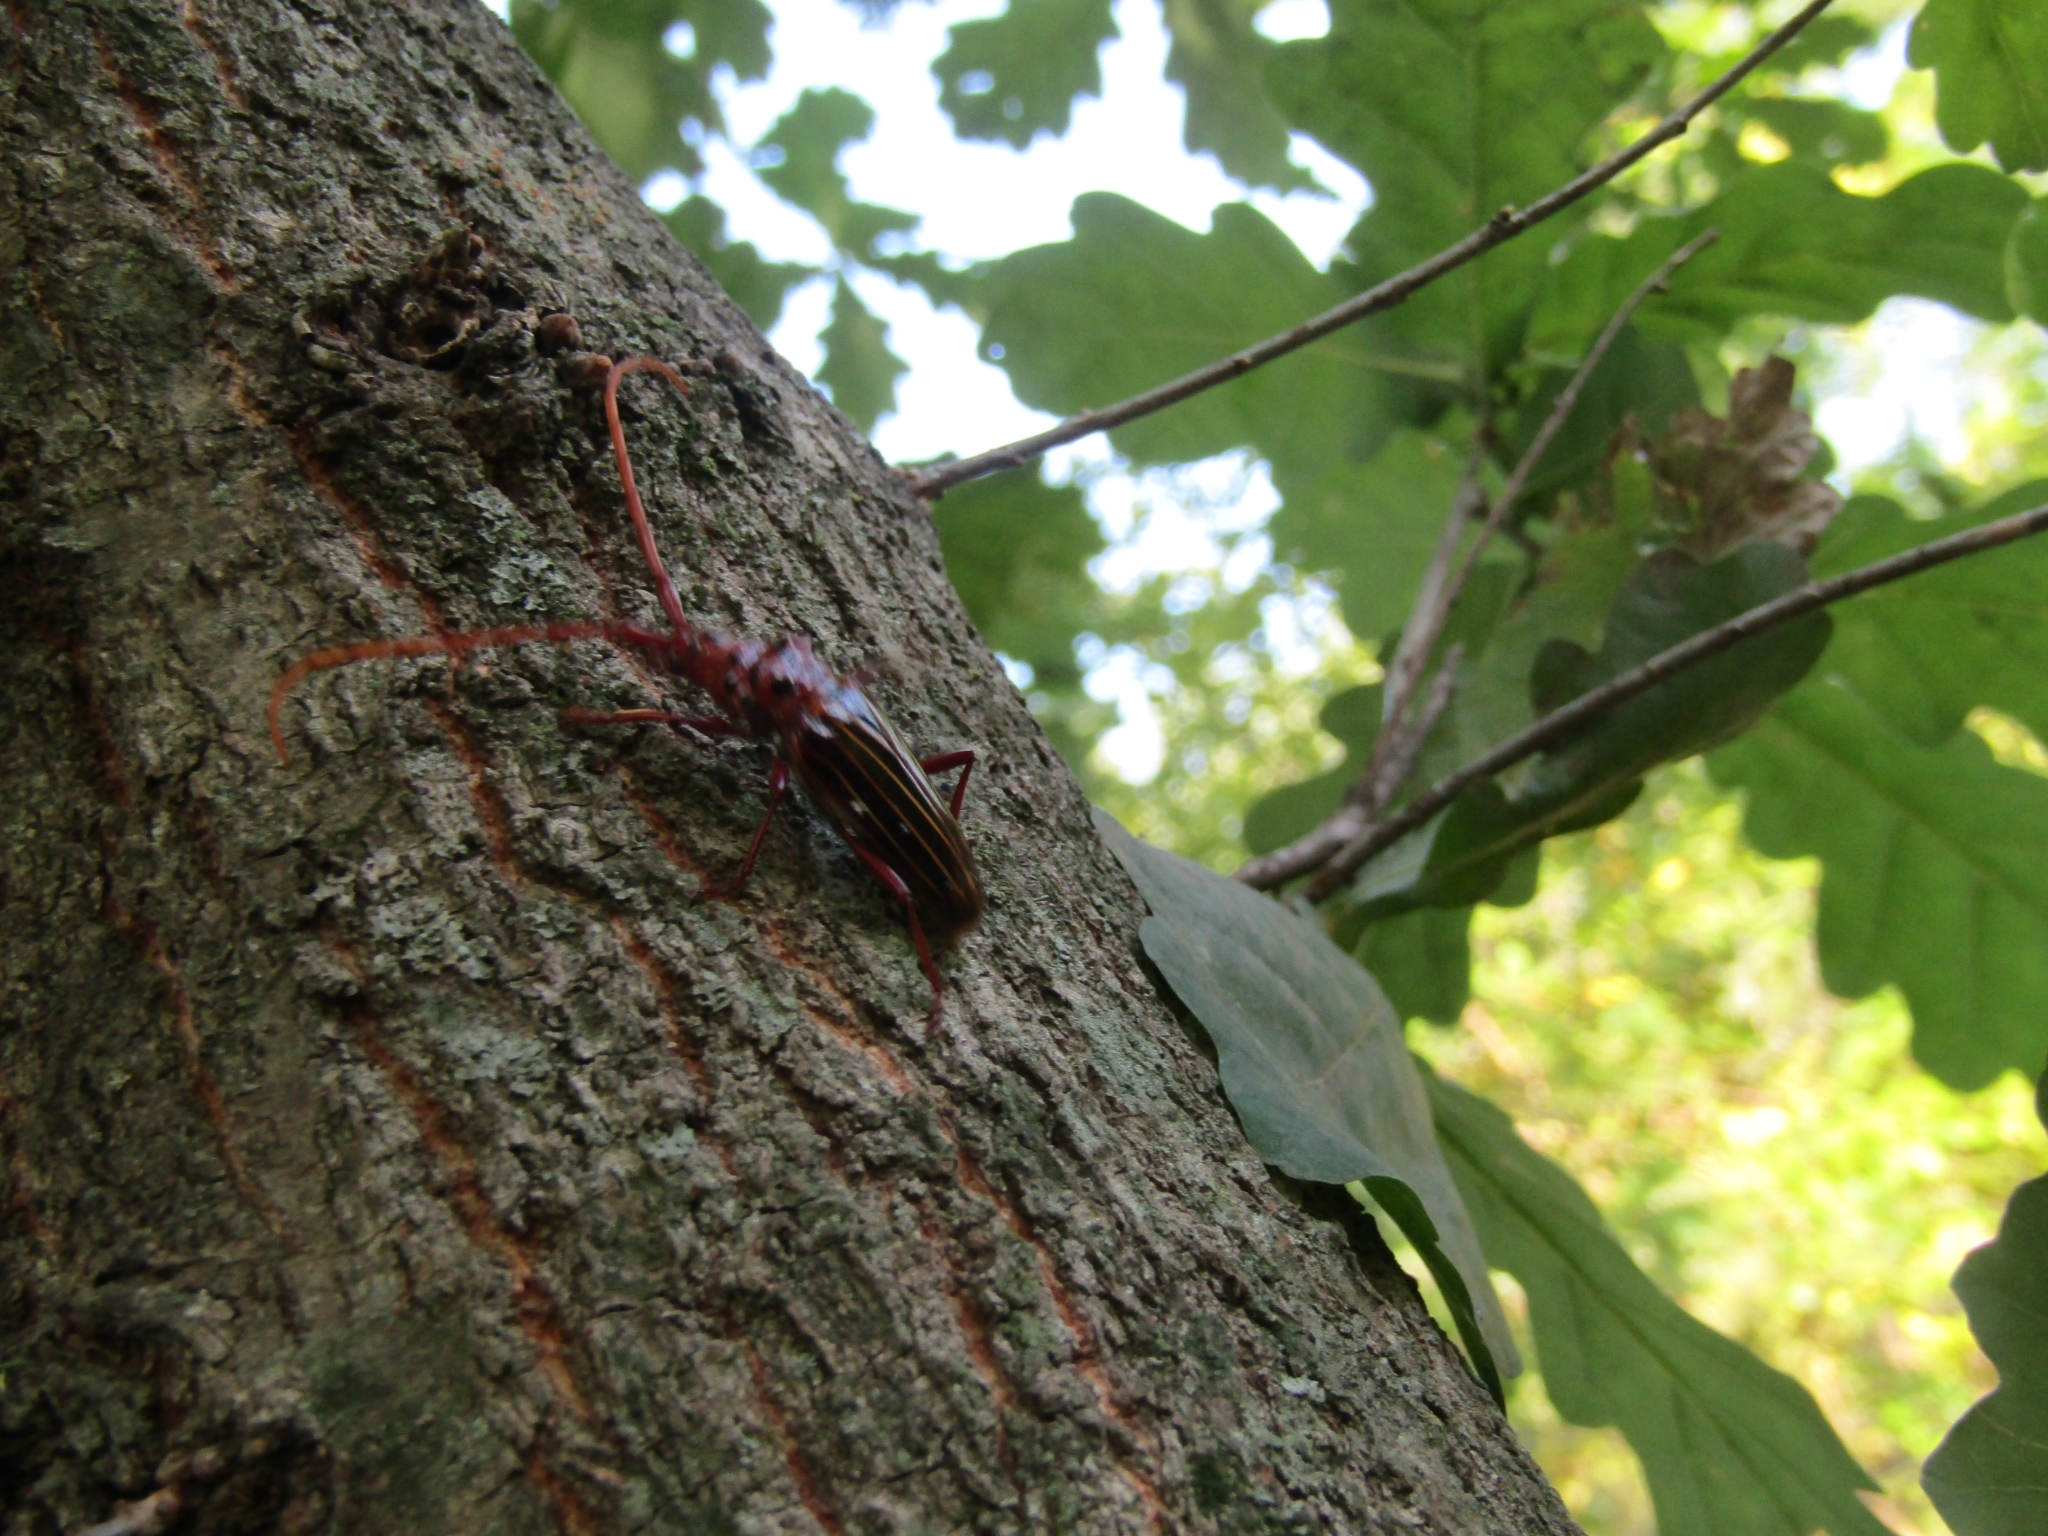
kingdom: Animalia
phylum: Arthropoda
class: Insecta
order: Coleoptera
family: Cerambycidae
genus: Chydarteres
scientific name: Chydarteres striatus
